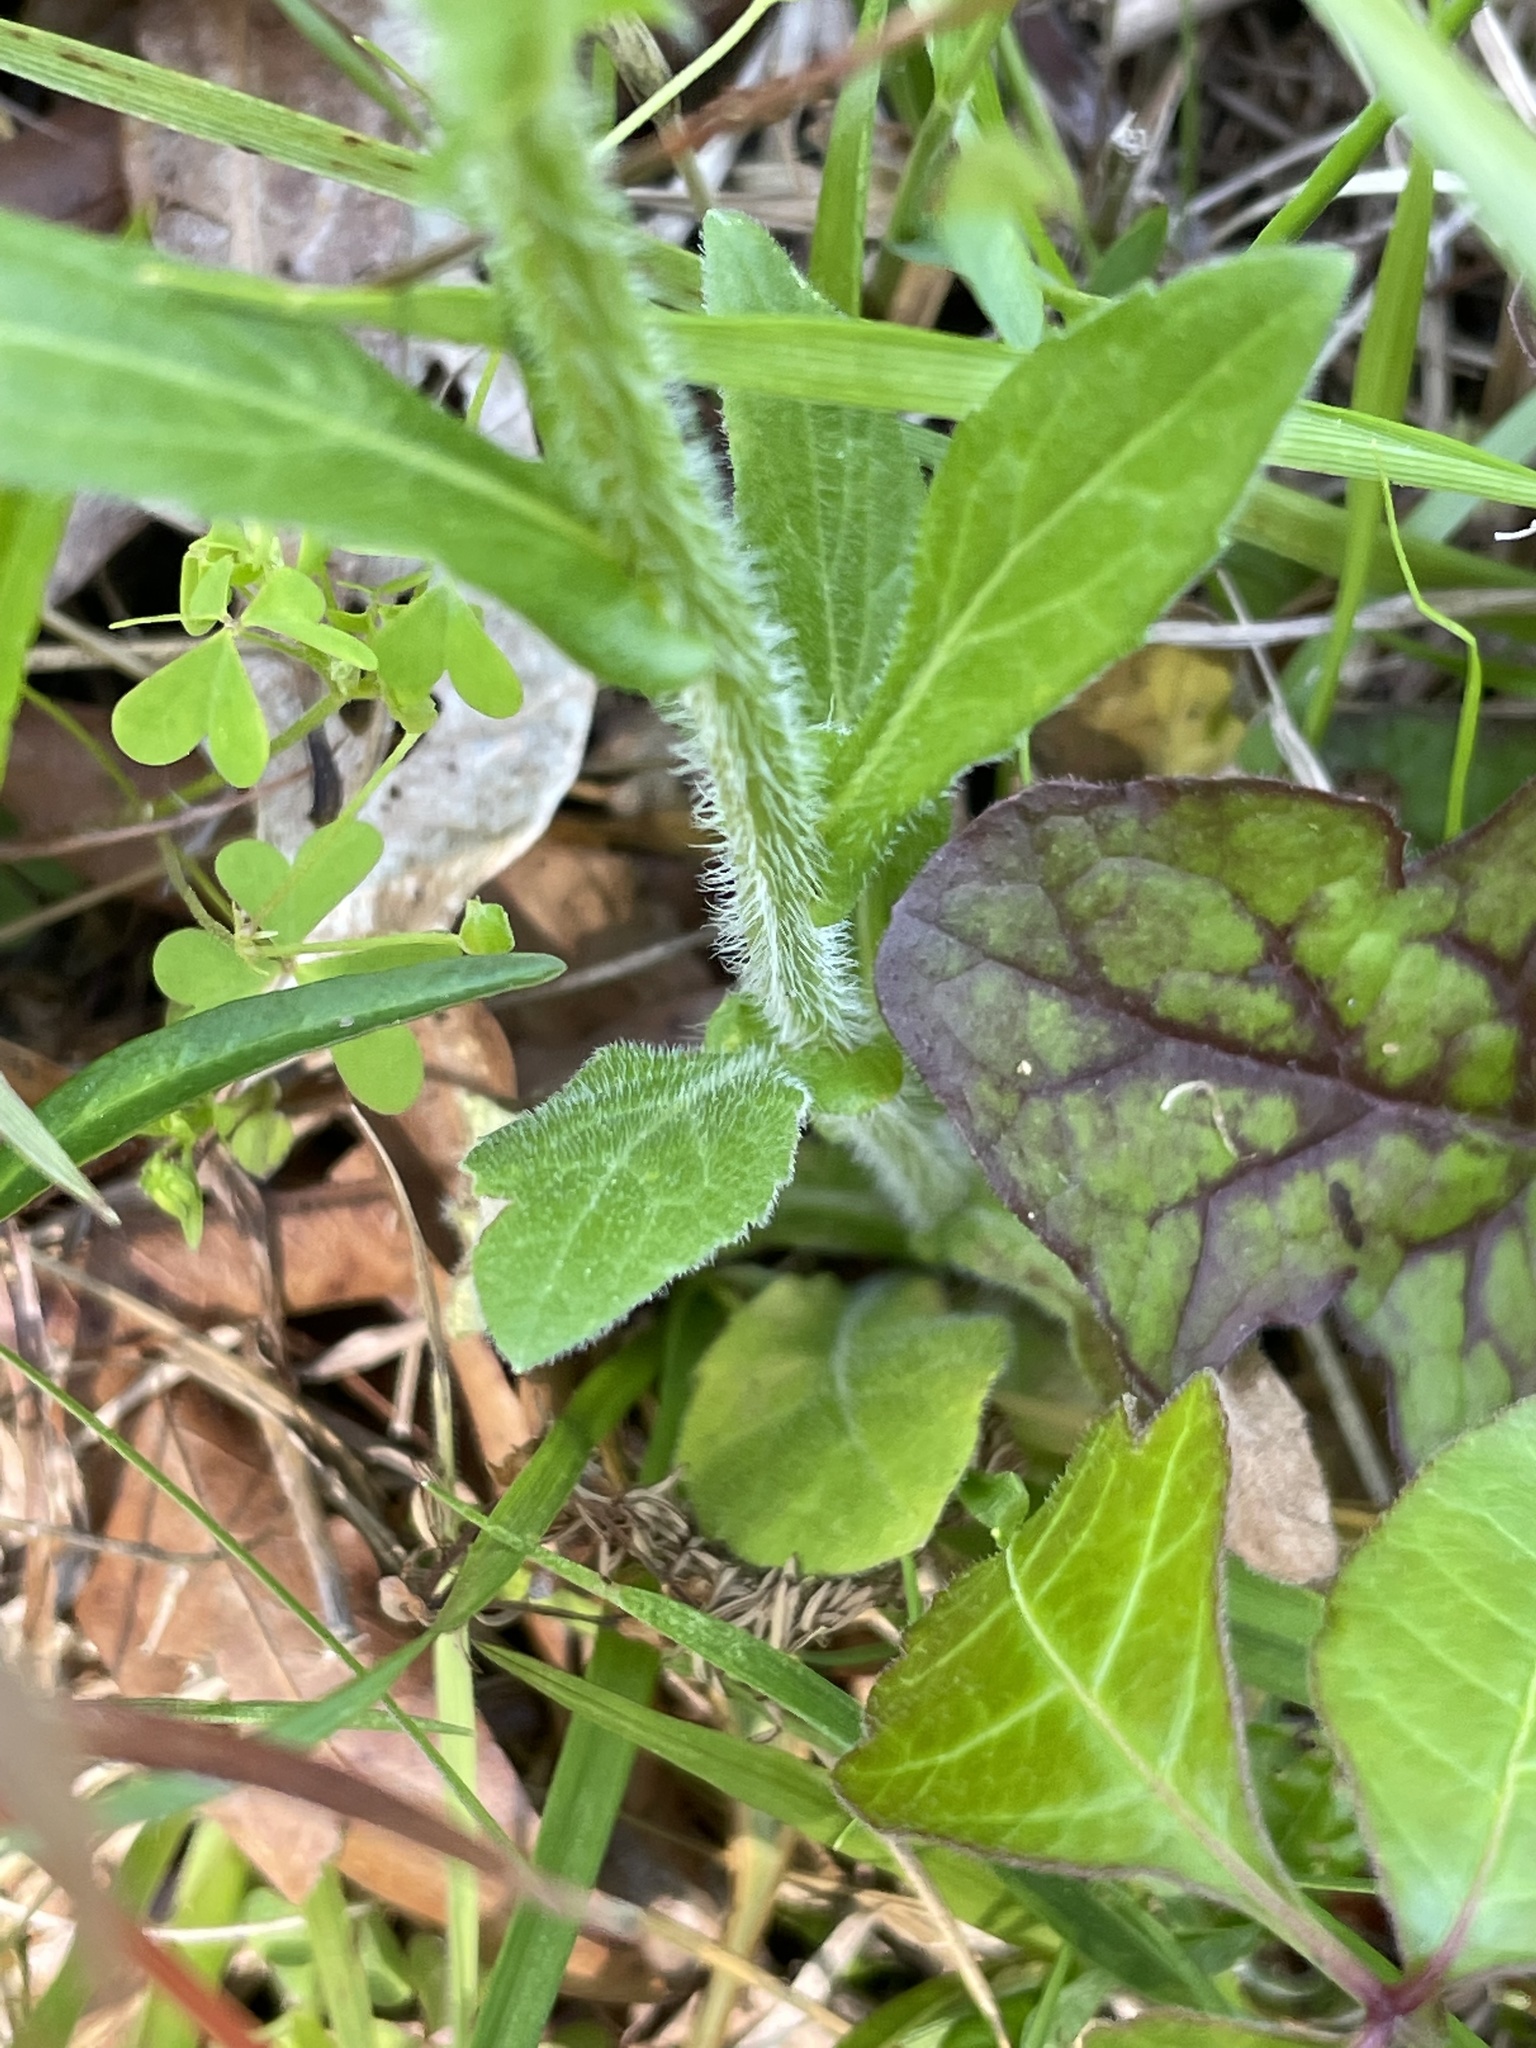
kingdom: Plantae
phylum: Tracheophyta
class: Magnoliopsida
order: Asterales
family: Asteraceae
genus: Erigeron
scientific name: Erigeron philadelphicus
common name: Robin's-plantain
